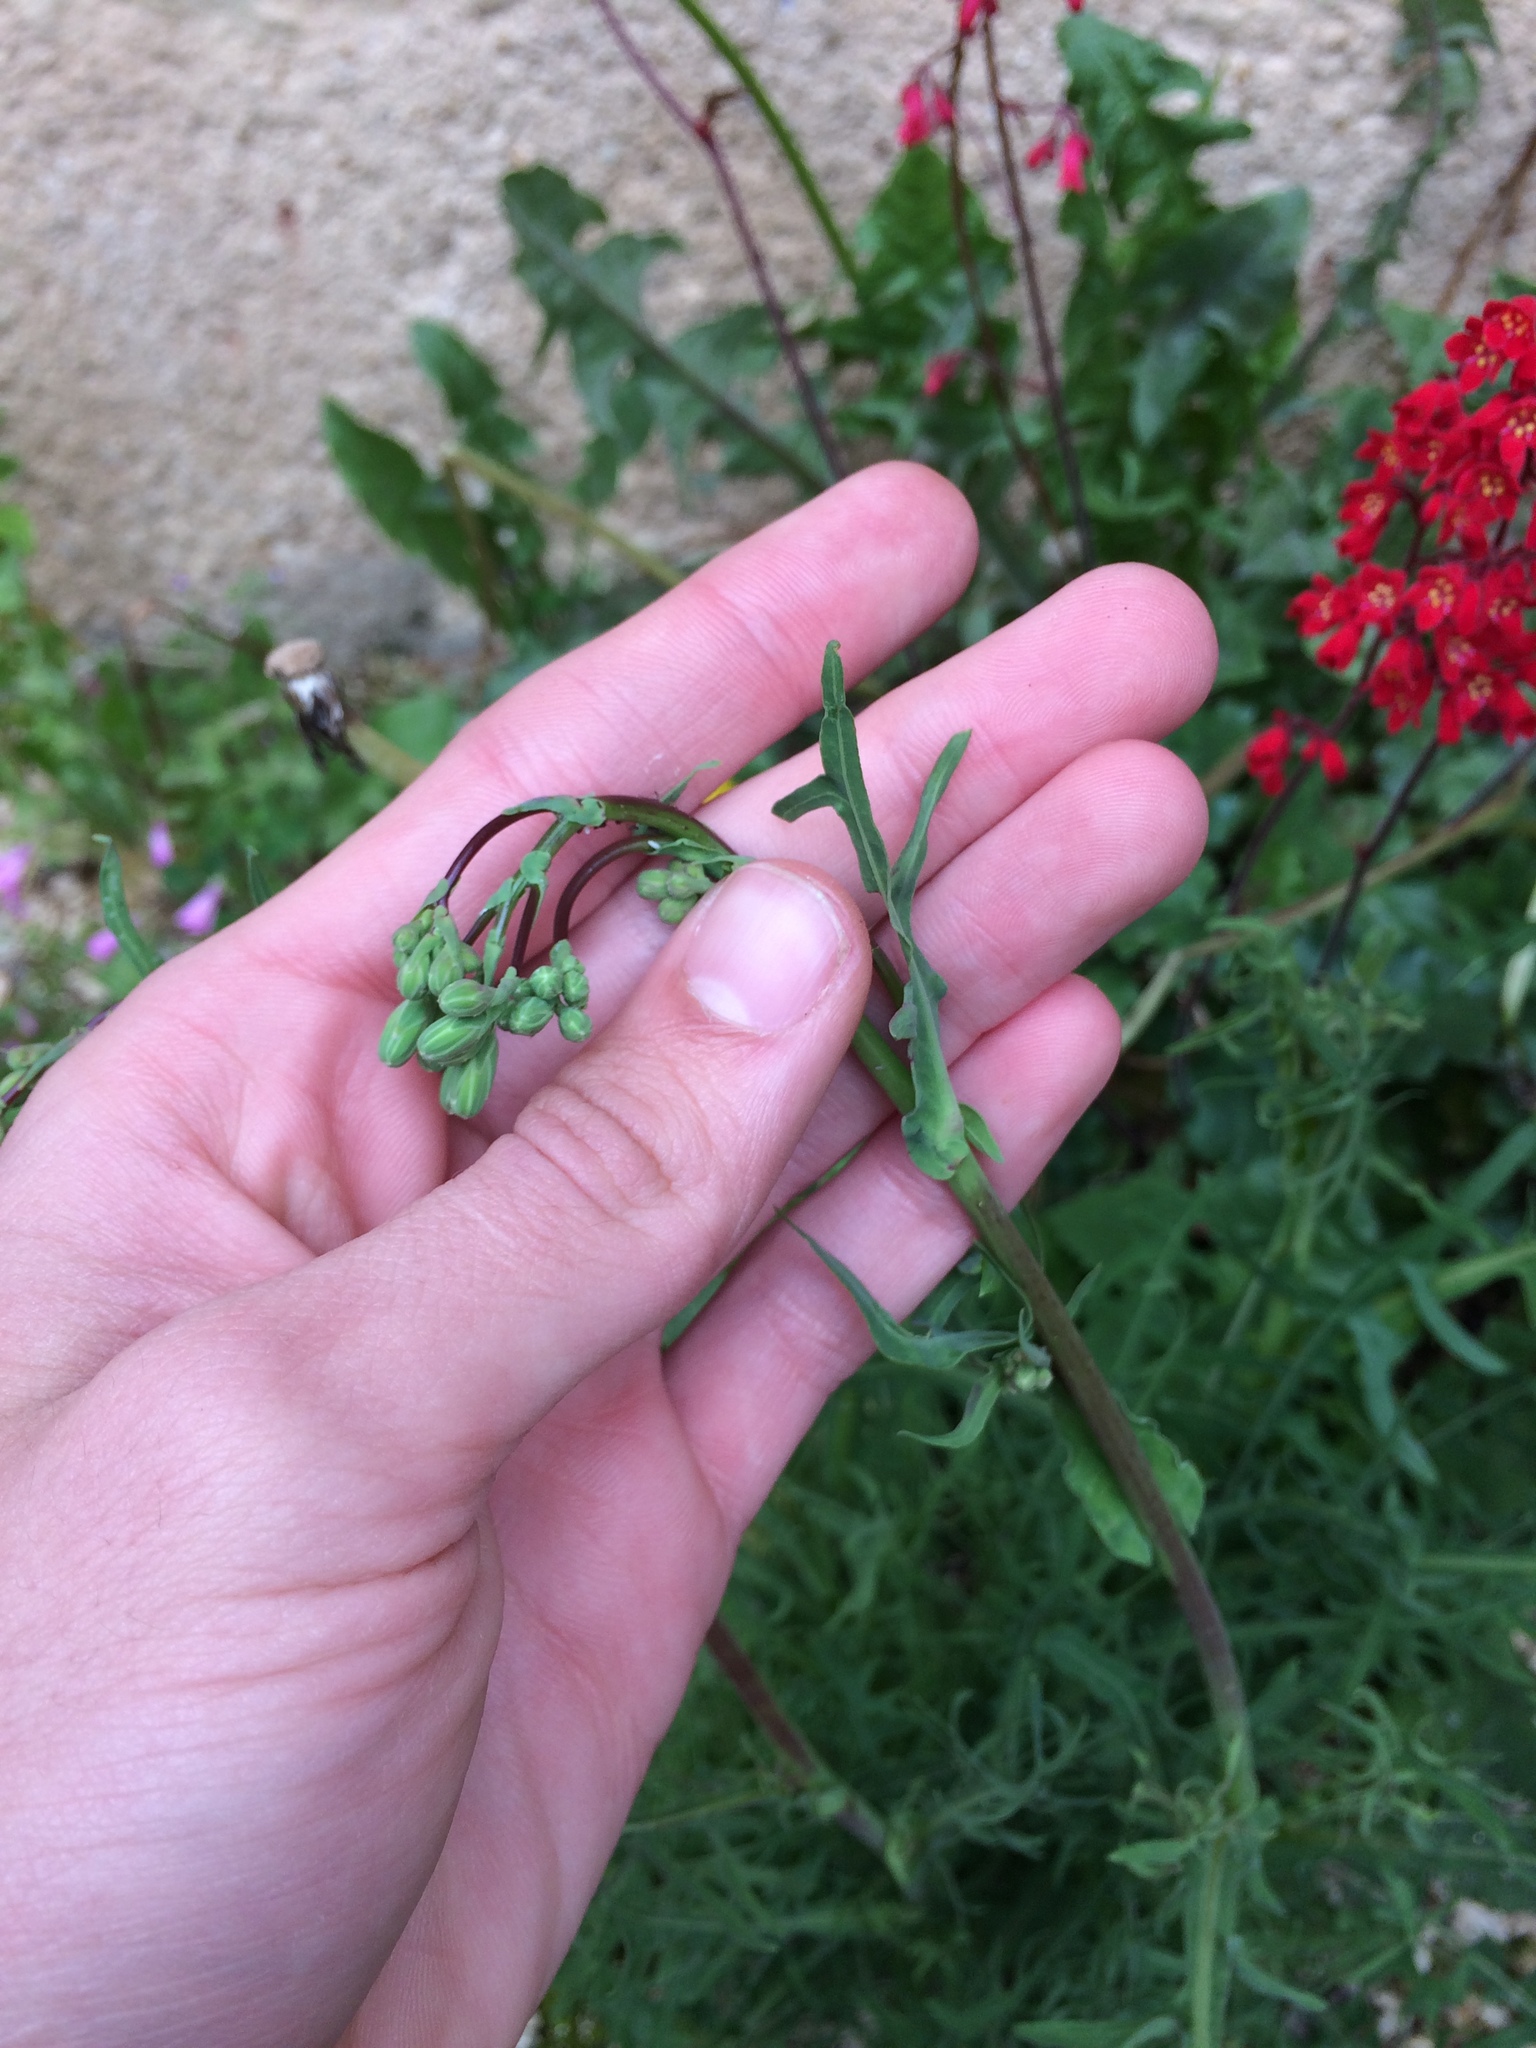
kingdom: Plantae
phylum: Tracheophyta
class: Magnoliopsida
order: Asterales
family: Asteraceae
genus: Lactuca
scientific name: Lactuca perennis
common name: Mountain lettuce
